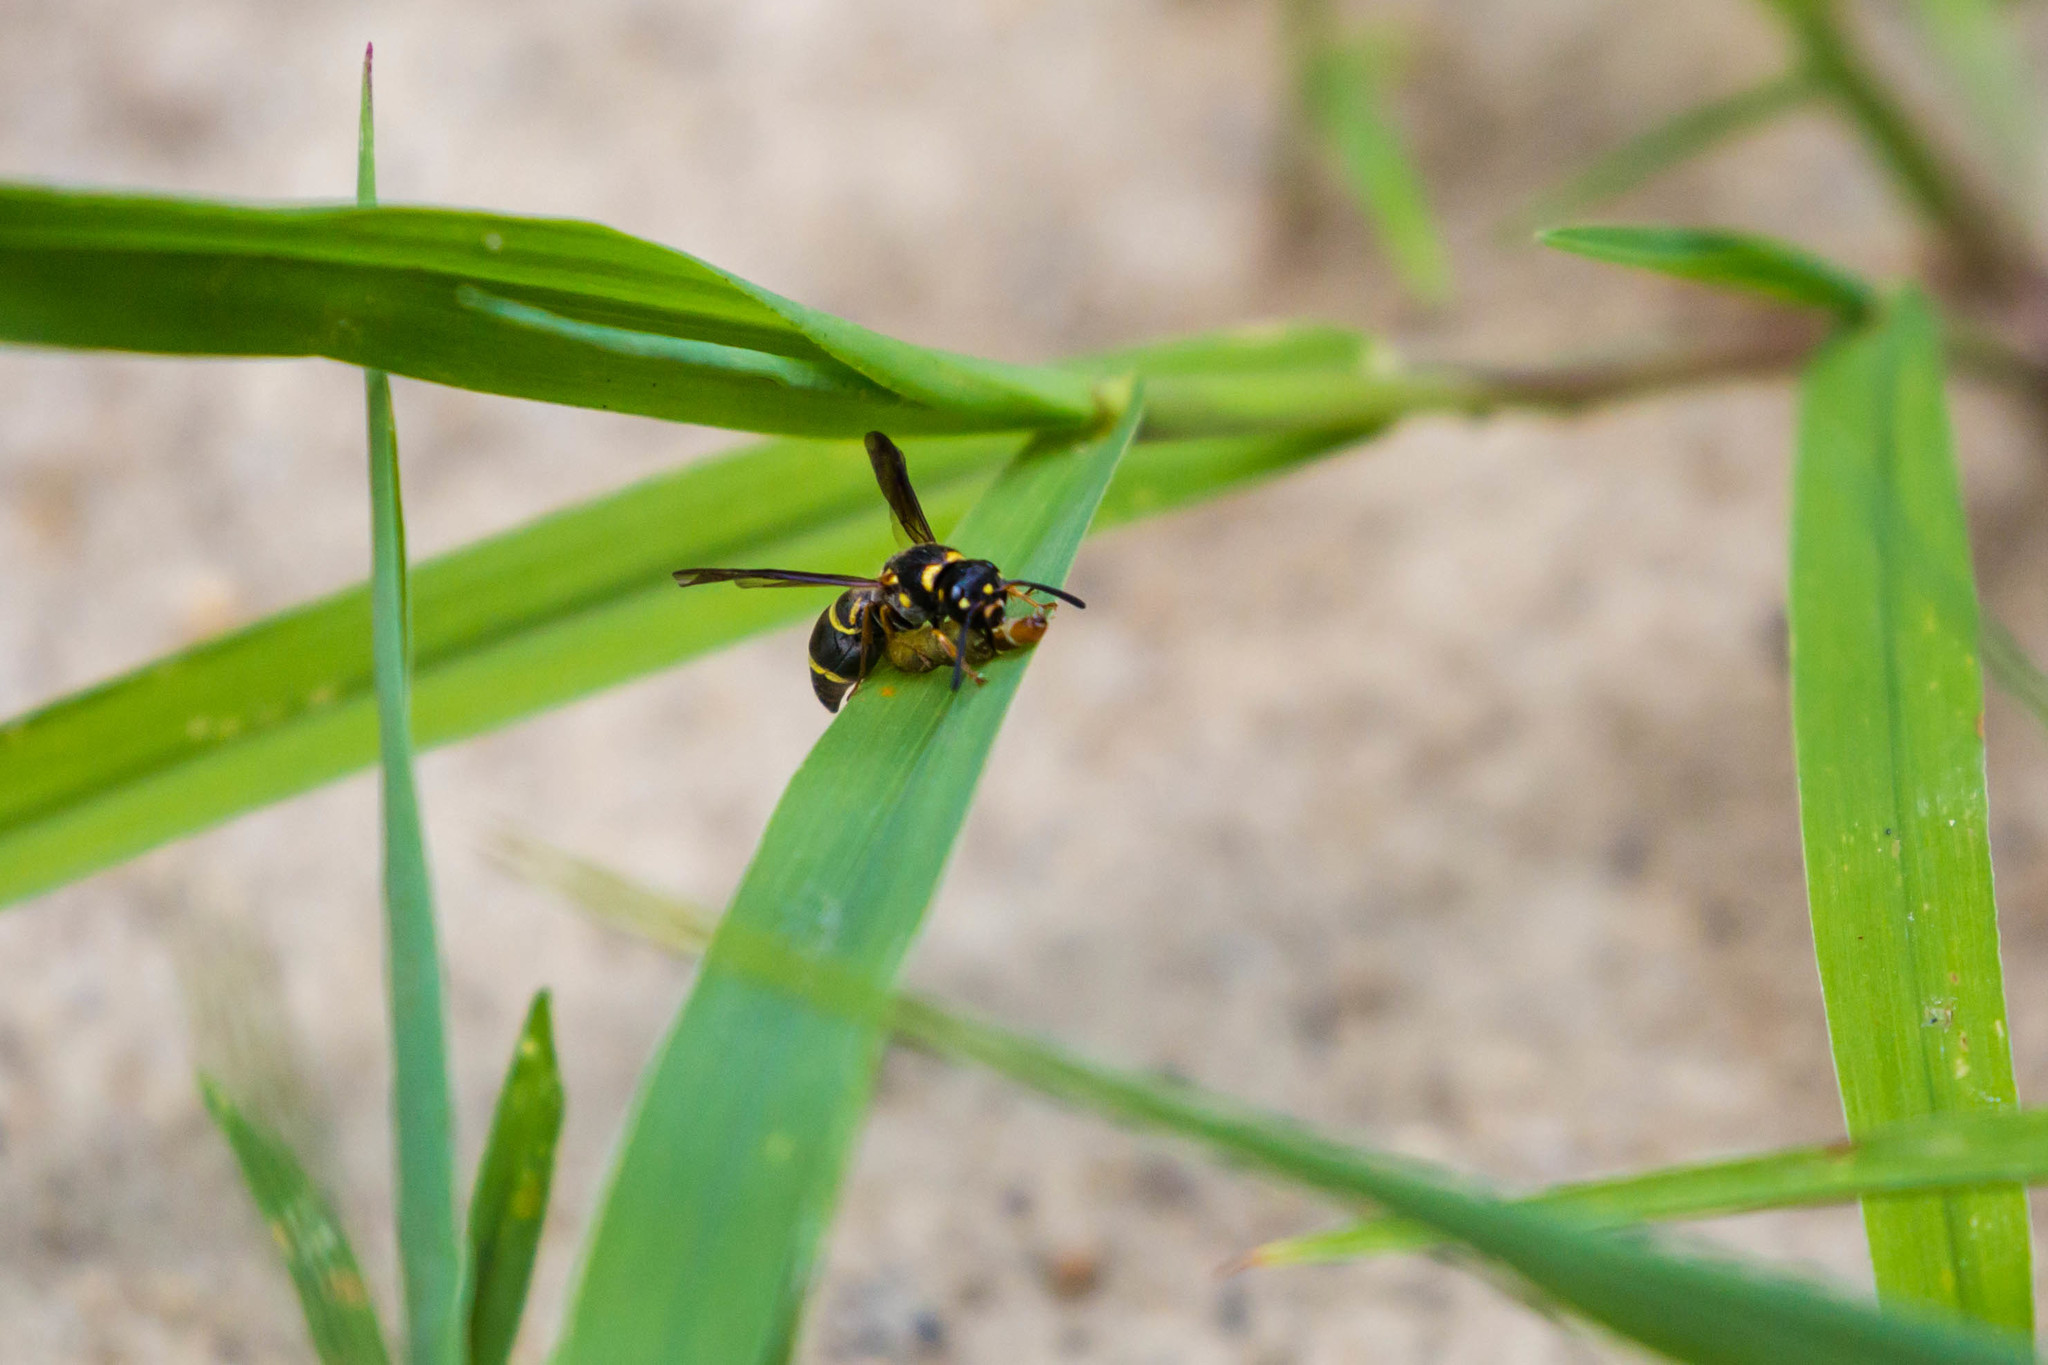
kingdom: Animalia
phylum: Arthropoda
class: Insecta
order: Hymenoptera
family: Eumenidae
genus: Parancistrocerus
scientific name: Parancistrocerus fulvipes
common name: Potter wasp
